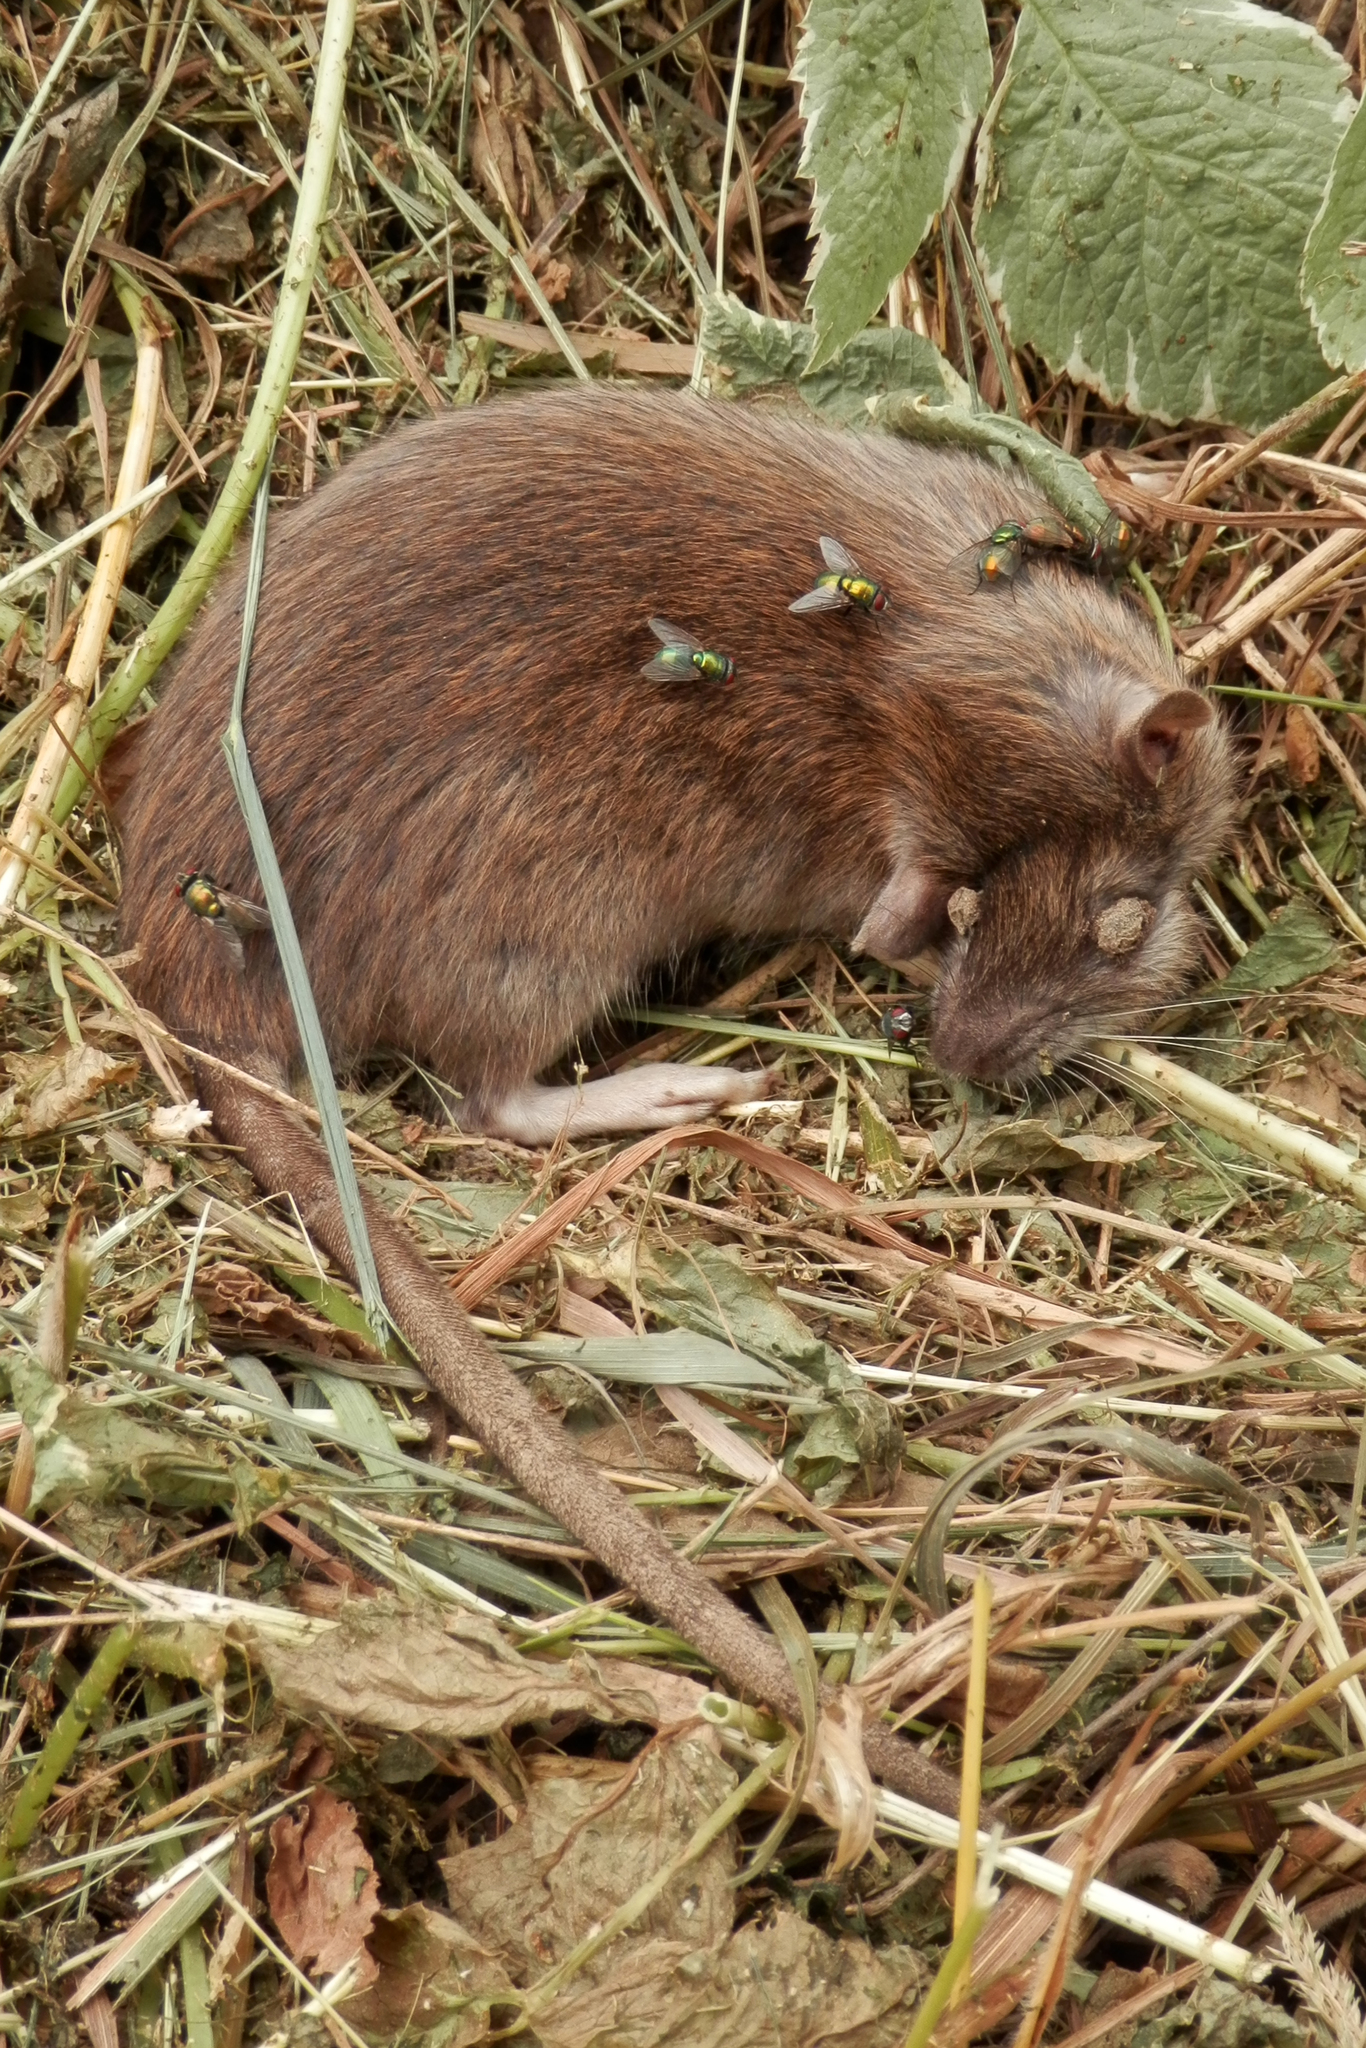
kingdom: Animalia
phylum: Chordata
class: Mammalia
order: Rodentia
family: Muridae
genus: Rattus
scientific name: Rattus norvegicus
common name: Brown rat
